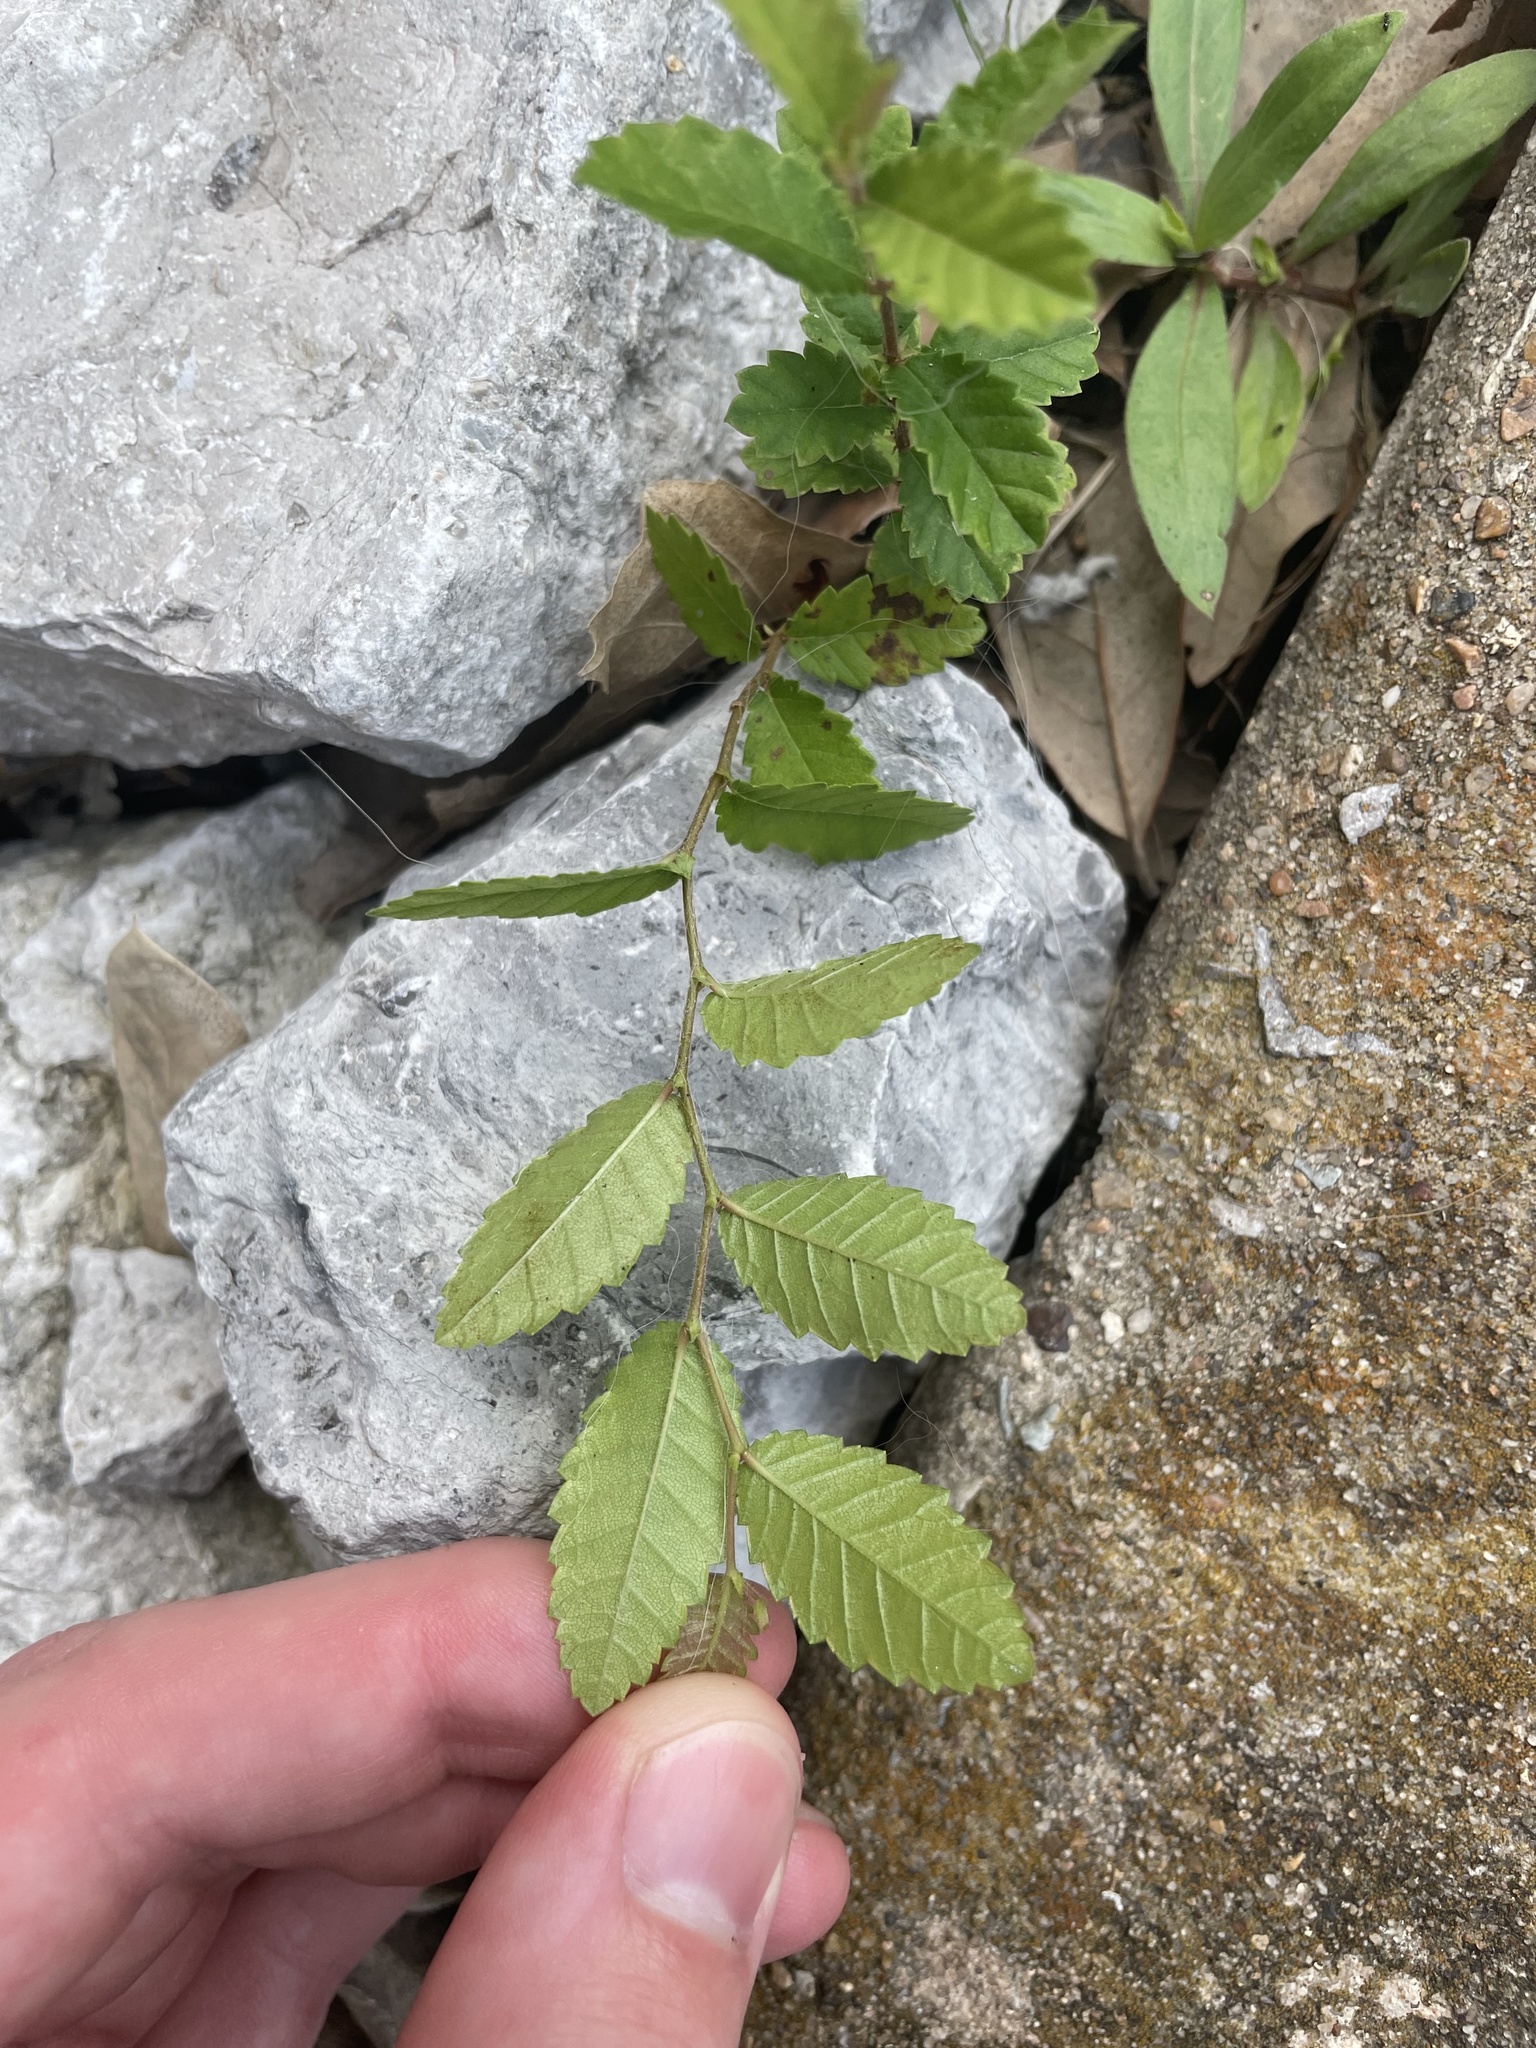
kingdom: Plantae
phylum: Tracheophyta
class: Magnoliopsida
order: Rosales
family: Ulmaceae
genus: Ulmus
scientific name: Ulmus crassifolia
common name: Basket elm
